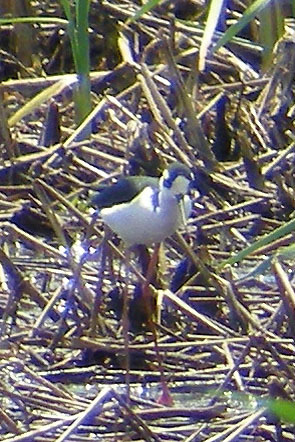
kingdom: Animalia
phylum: Chordata
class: Aves
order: Charadriiformes
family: Recurvirostridae
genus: Himantopus
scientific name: Himantopus mexicanus
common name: Black-necked stilt
